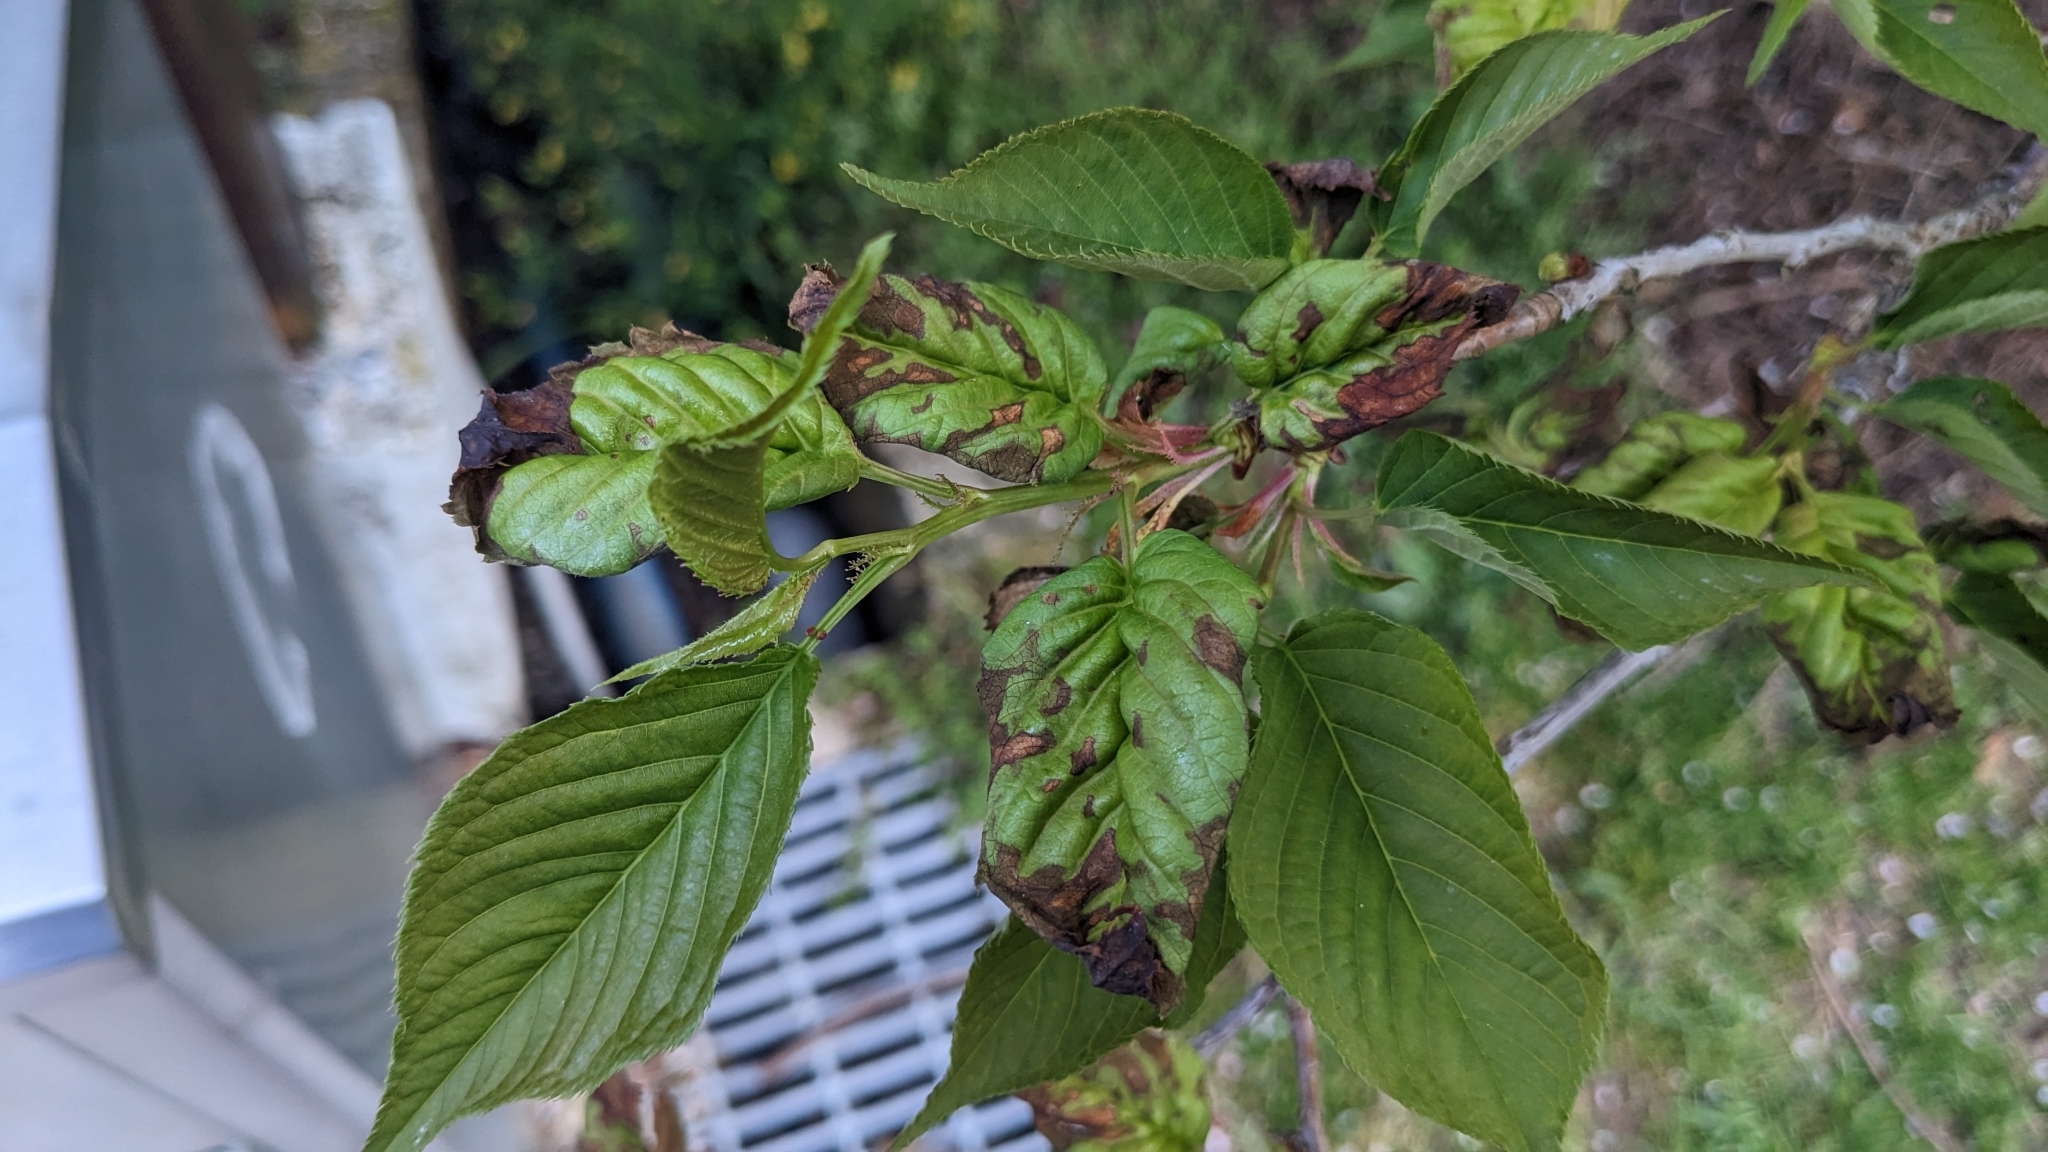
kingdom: Plantae
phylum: Tracheophyta
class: Magnoliopsida
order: Rosales
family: Rosaceae
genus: Prunus
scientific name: Prunus transarisanensis
